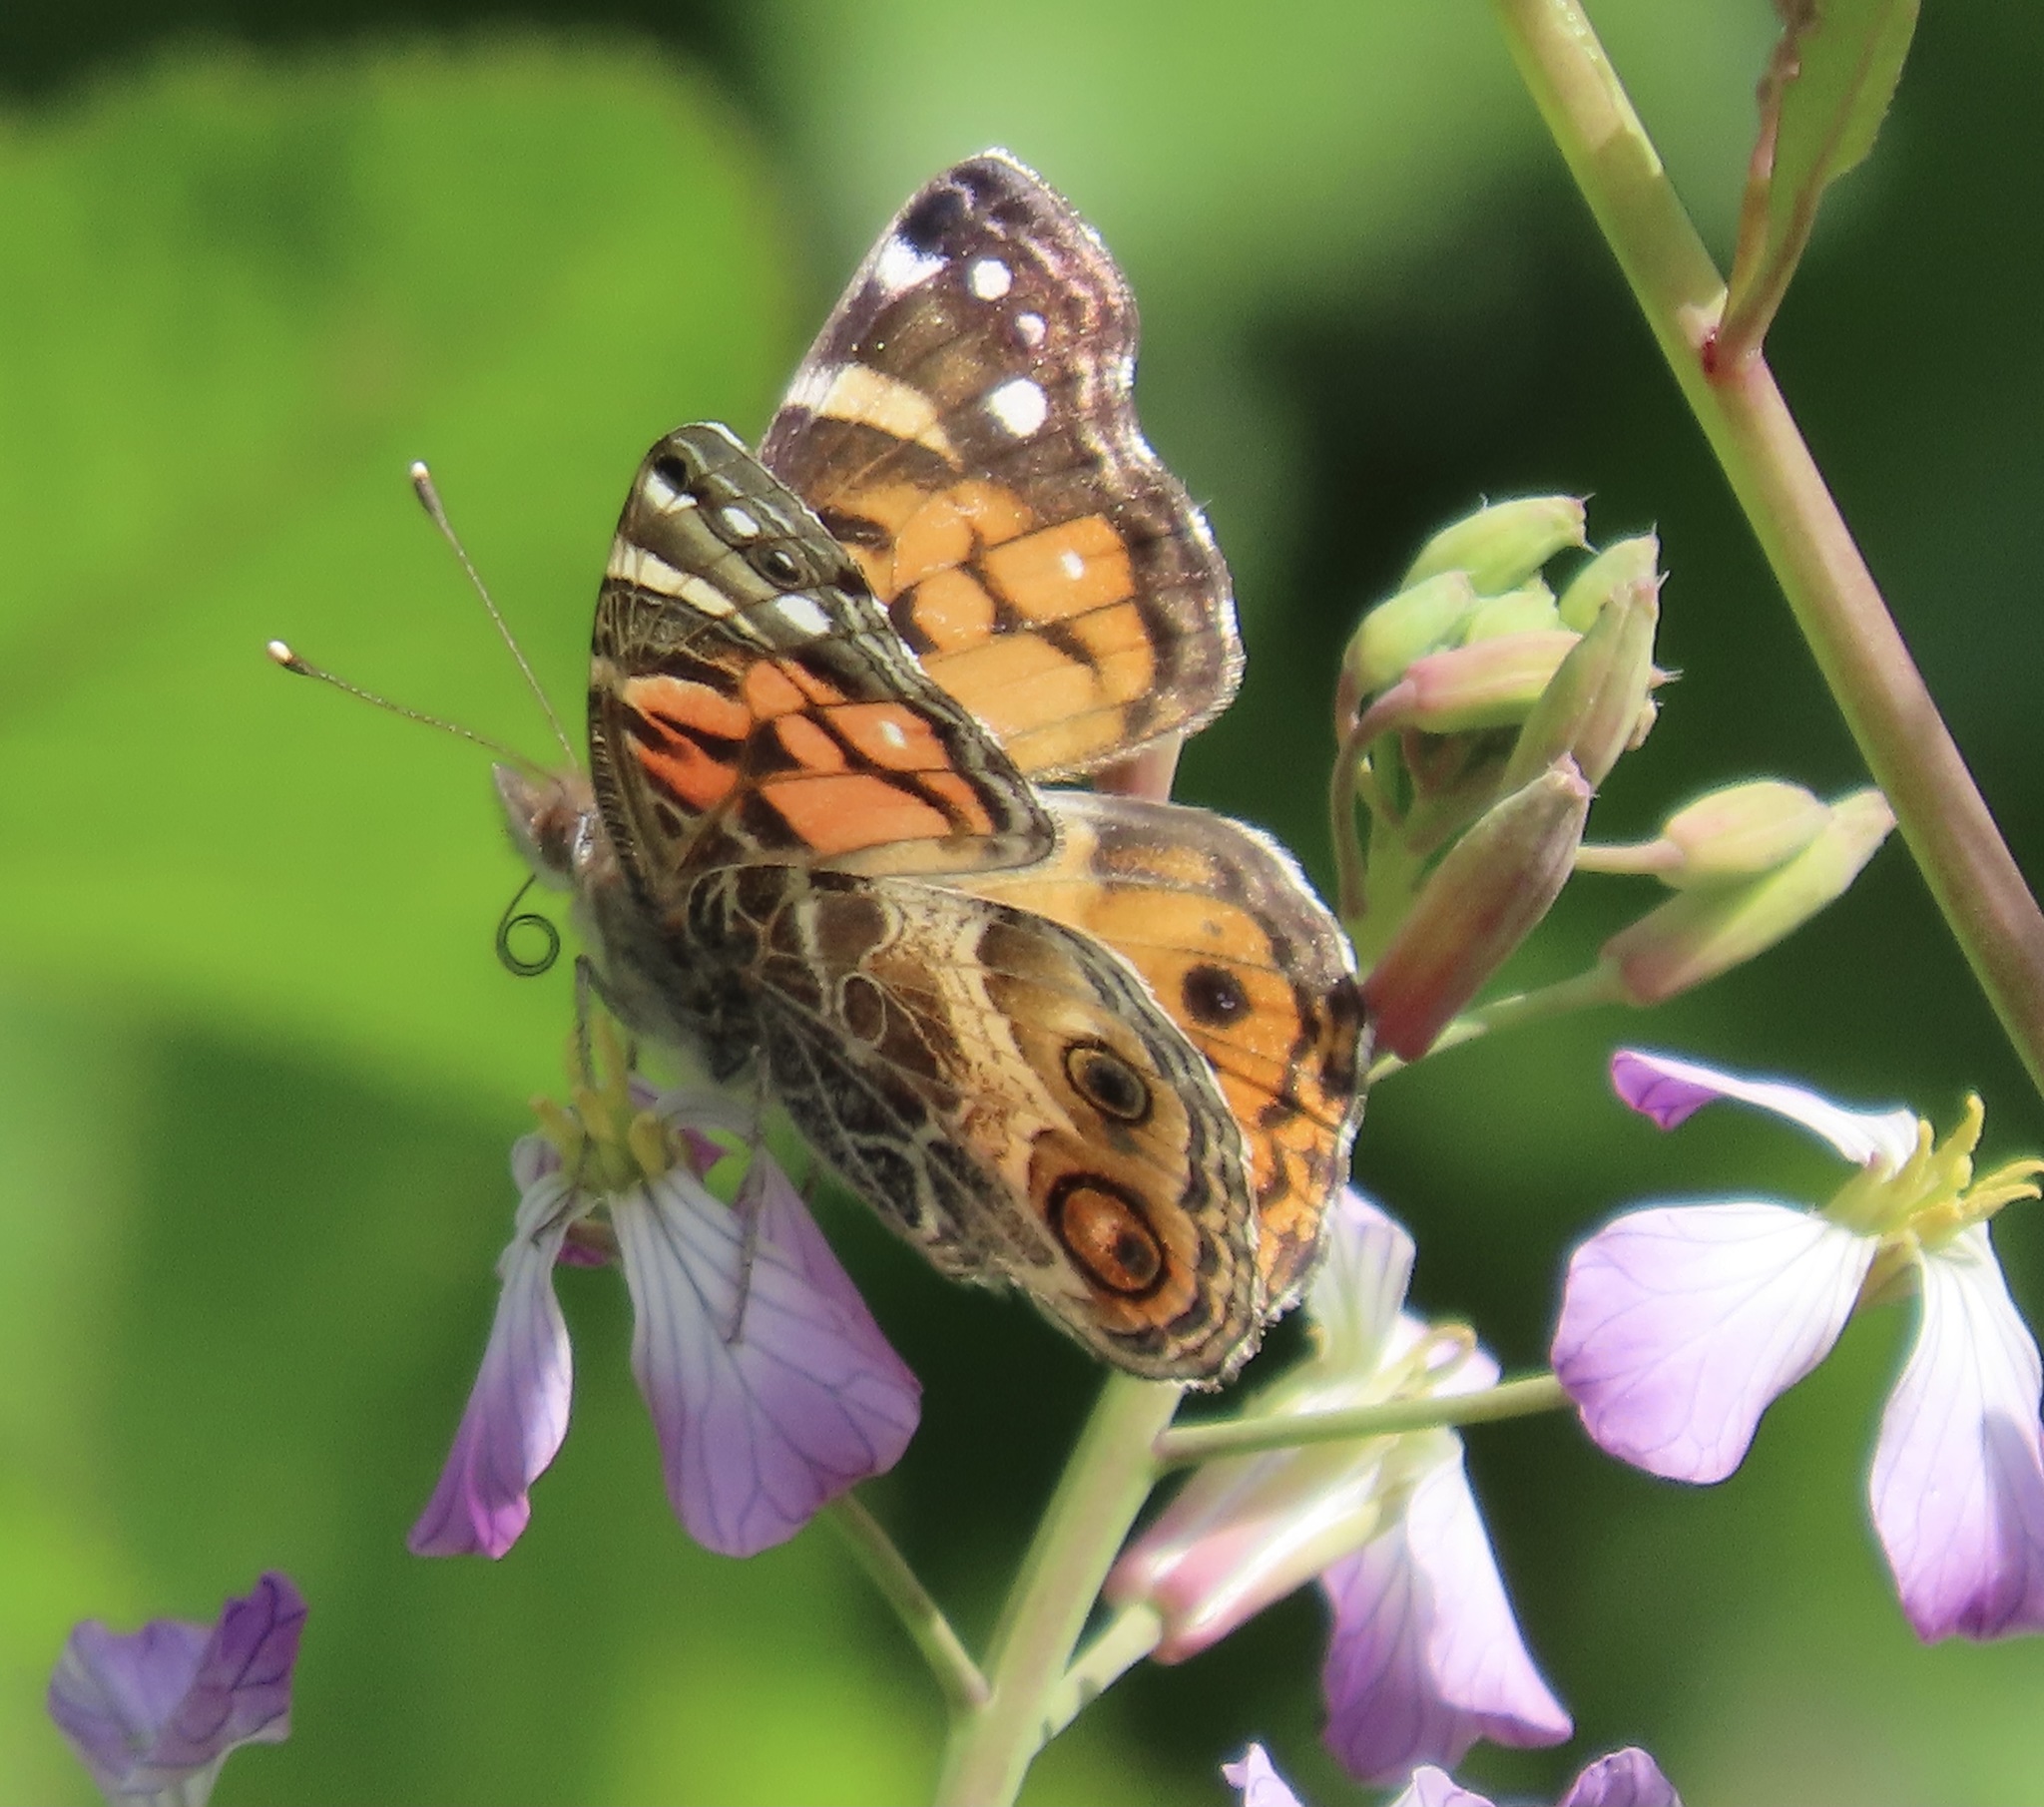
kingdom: Animalia
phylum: Arthropoda
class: Insecta
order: Lepidoptera
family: Nymphalidae
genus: Vanessa
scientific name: Vanessa virginiensis
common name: American lady
